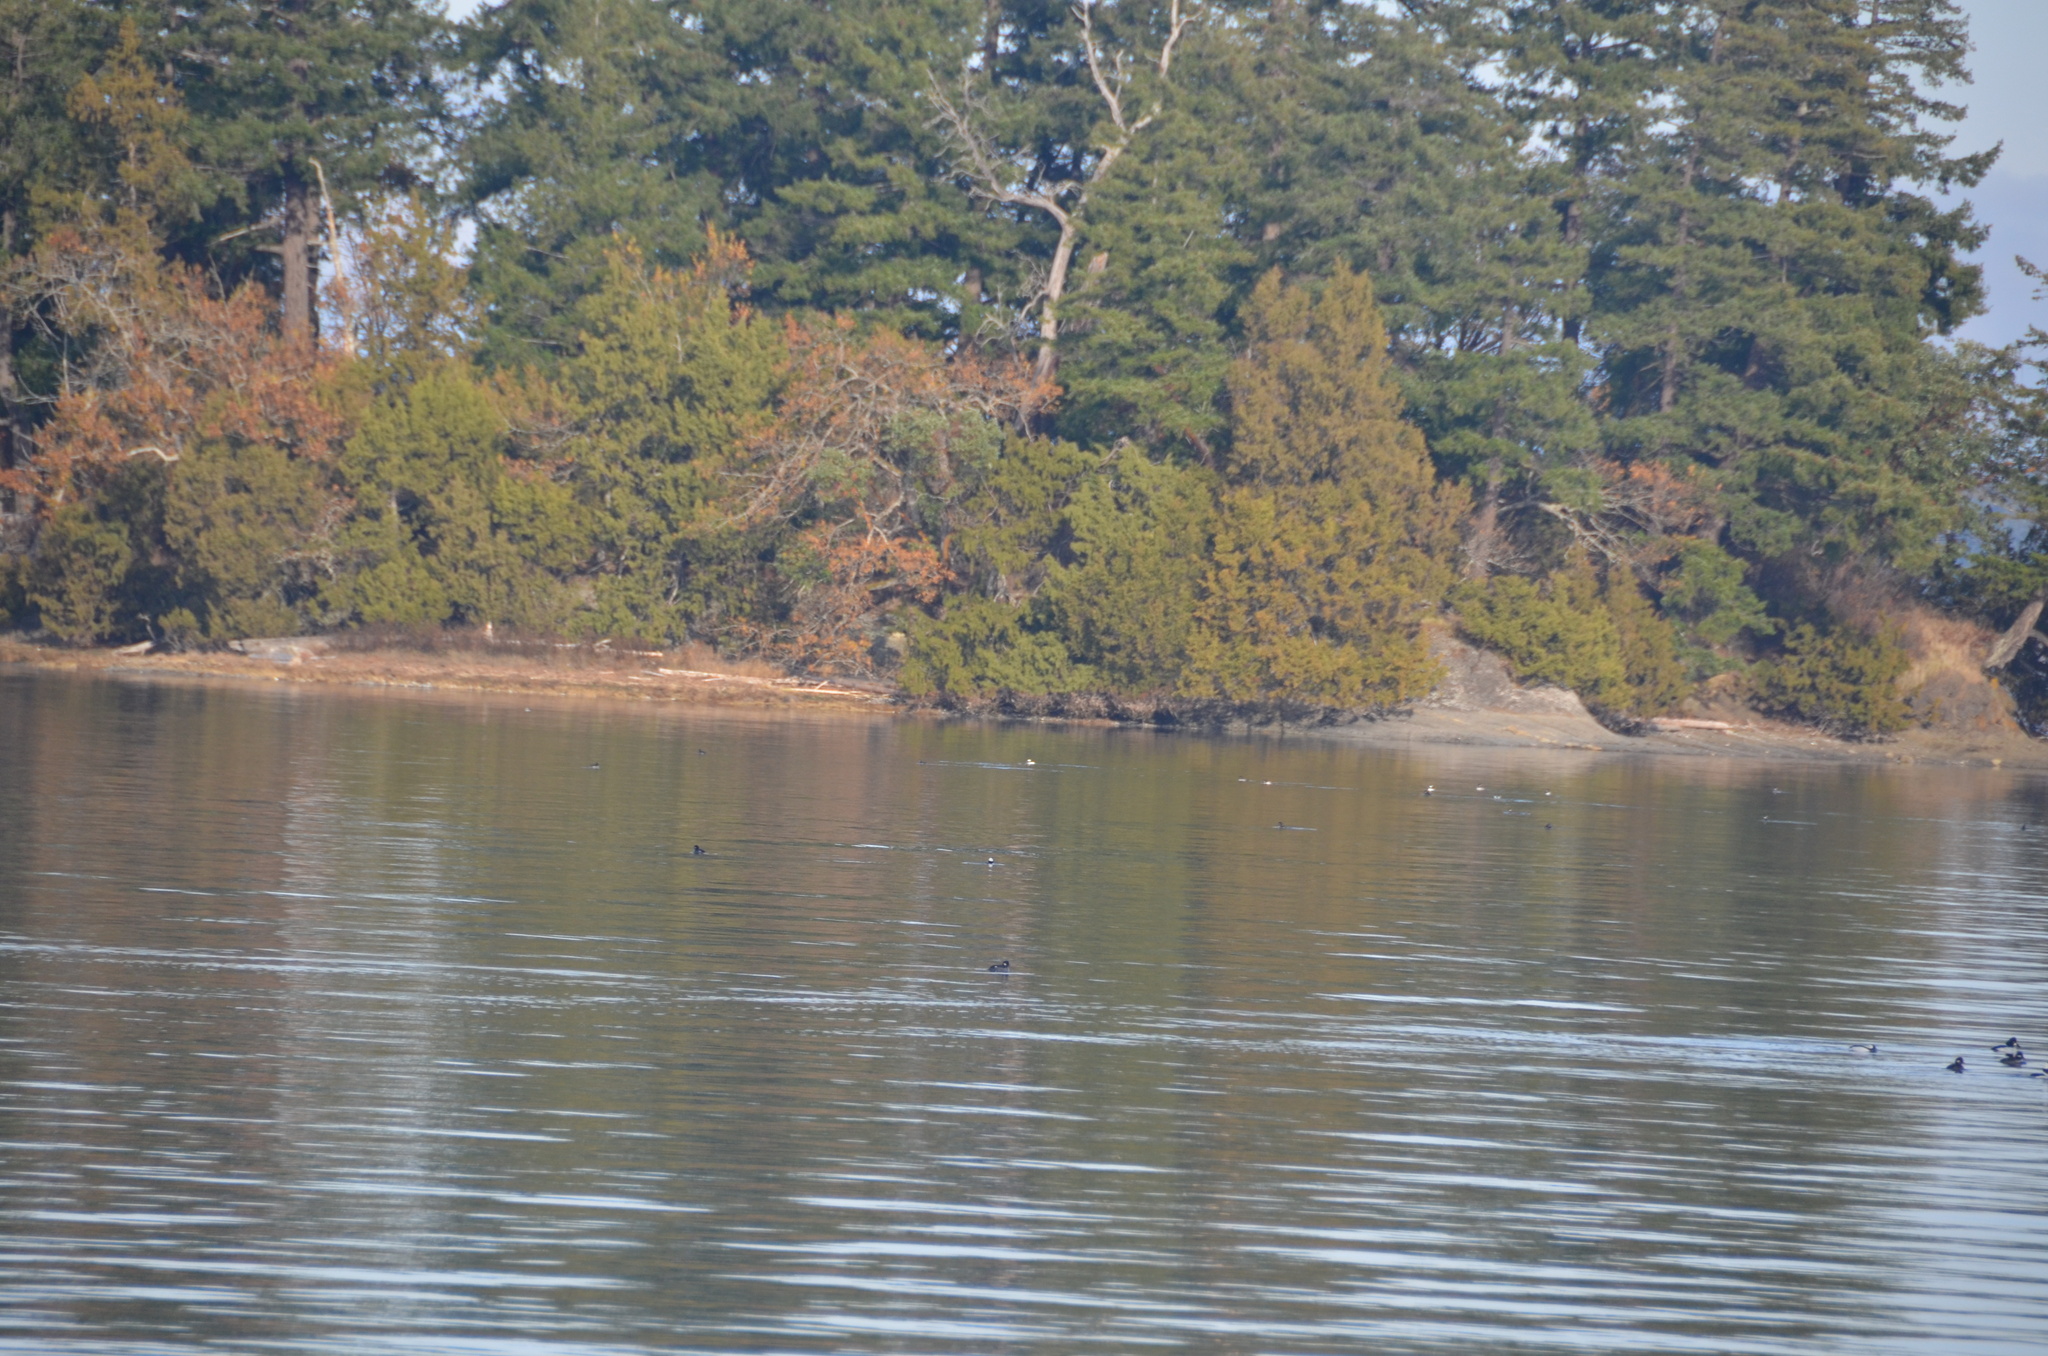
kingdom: Animalia
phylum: Chordata
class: Aves
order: Anseriformes
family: Anatidae
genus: Bucephala
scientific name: Bucephala albeola
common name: Bufflehead
